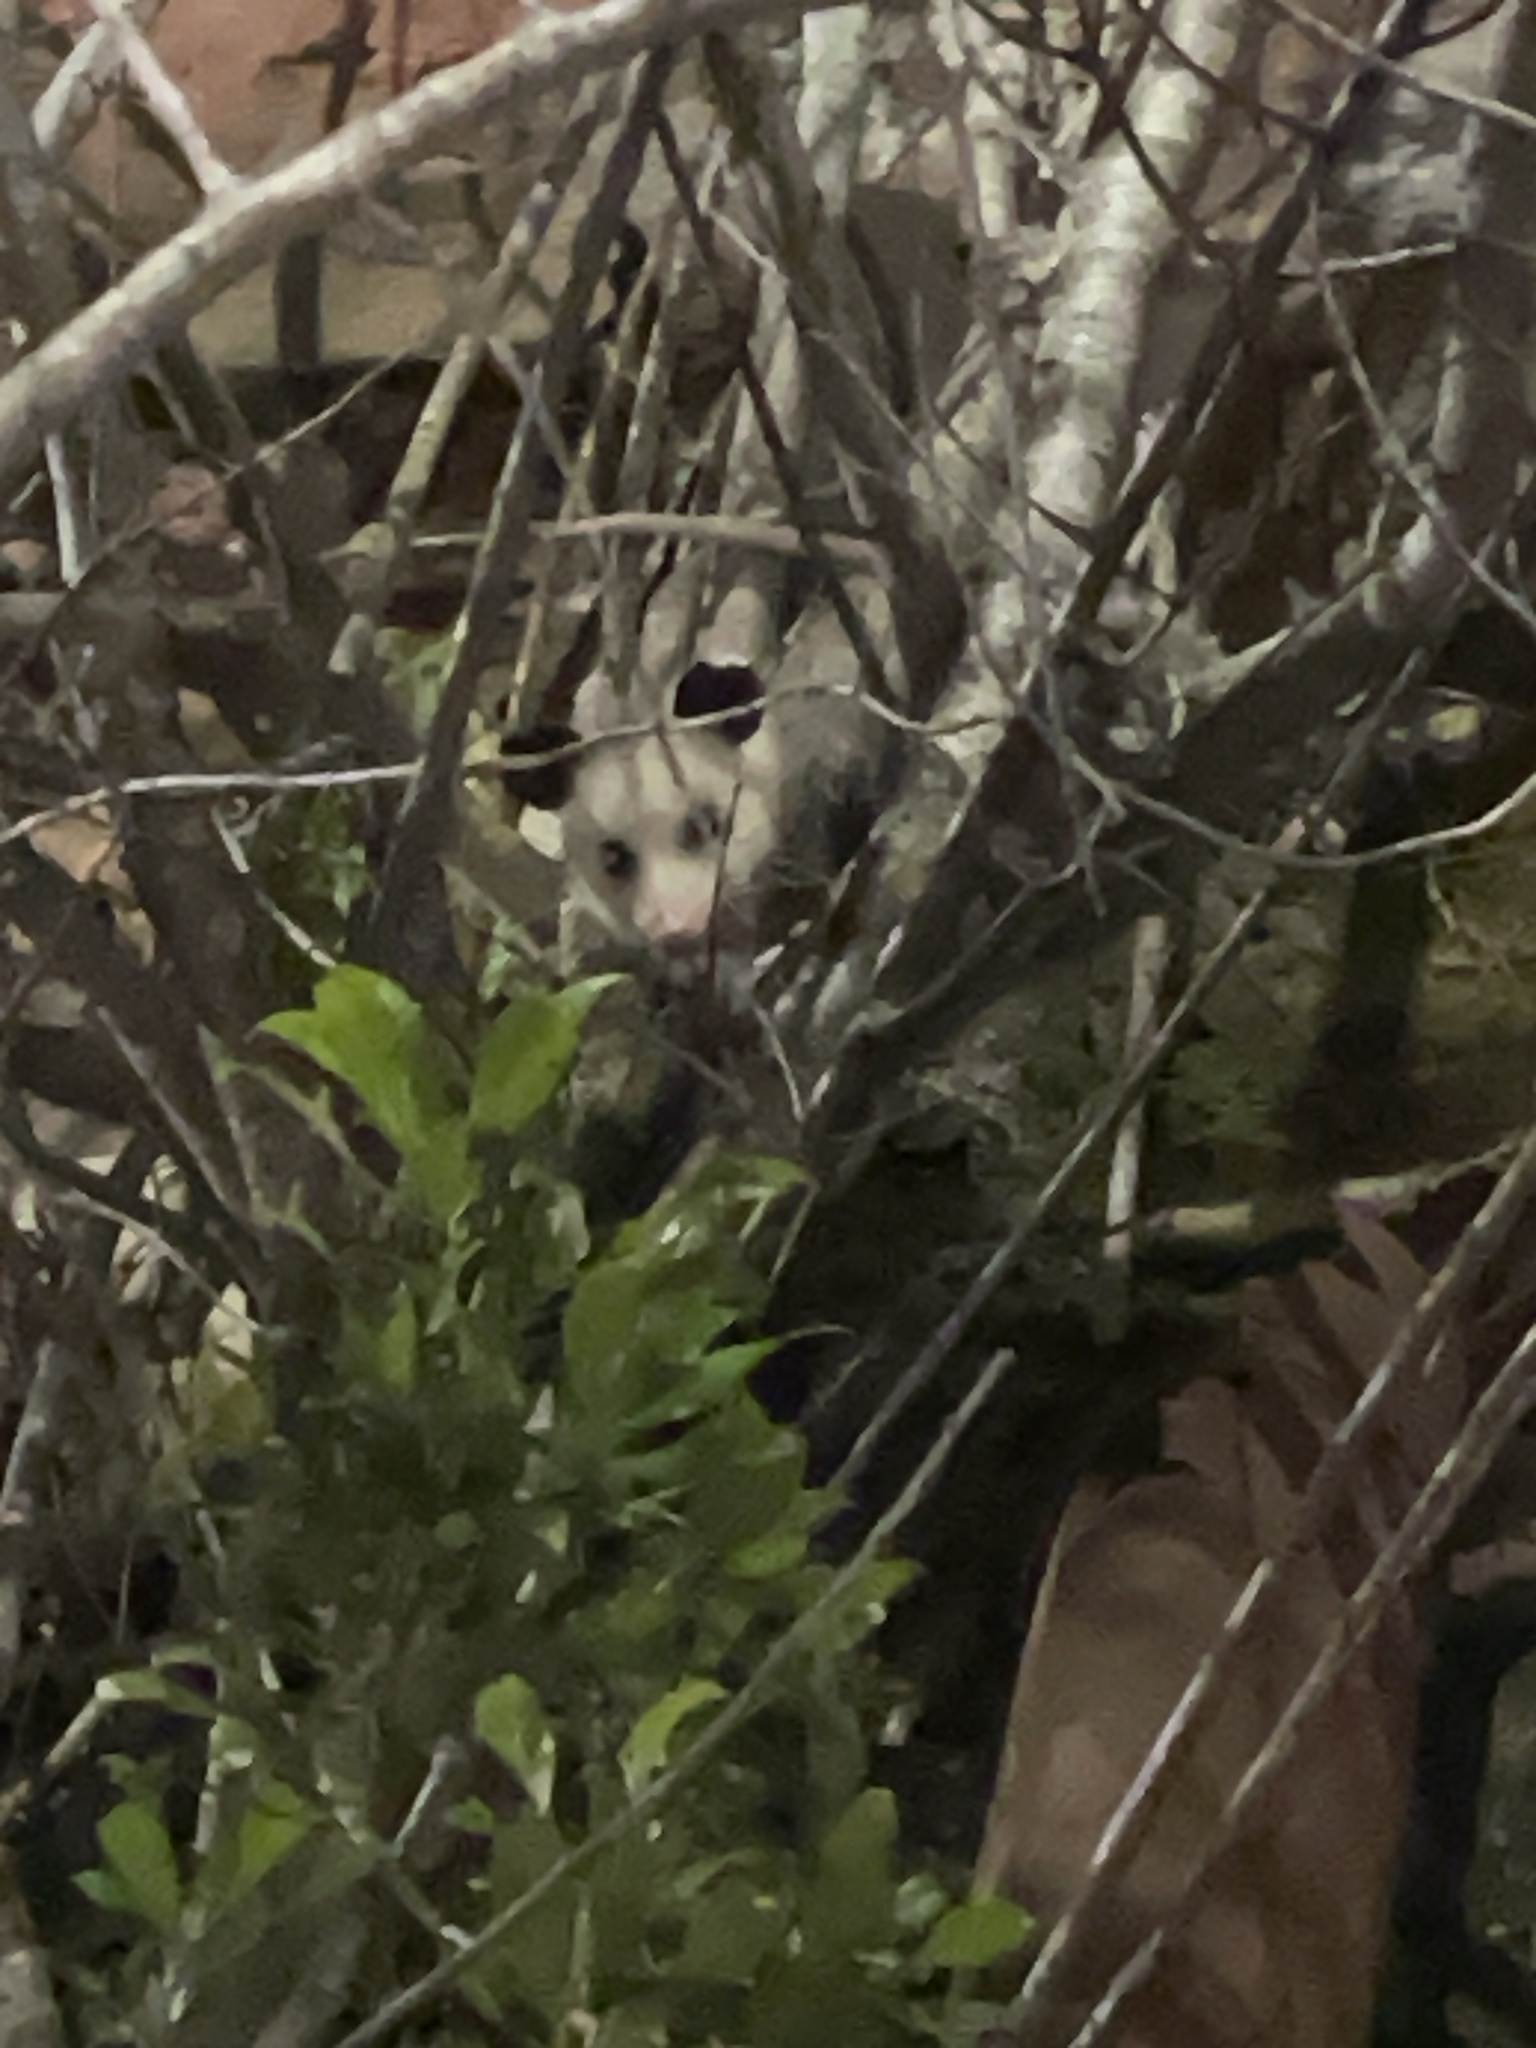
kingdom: Animalia
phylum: Chordata
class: Mammalia
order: Didelphimorphia
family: Didelphidae
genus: Didelphis
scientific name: Didelphis virginiana
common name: Virginia opossum
